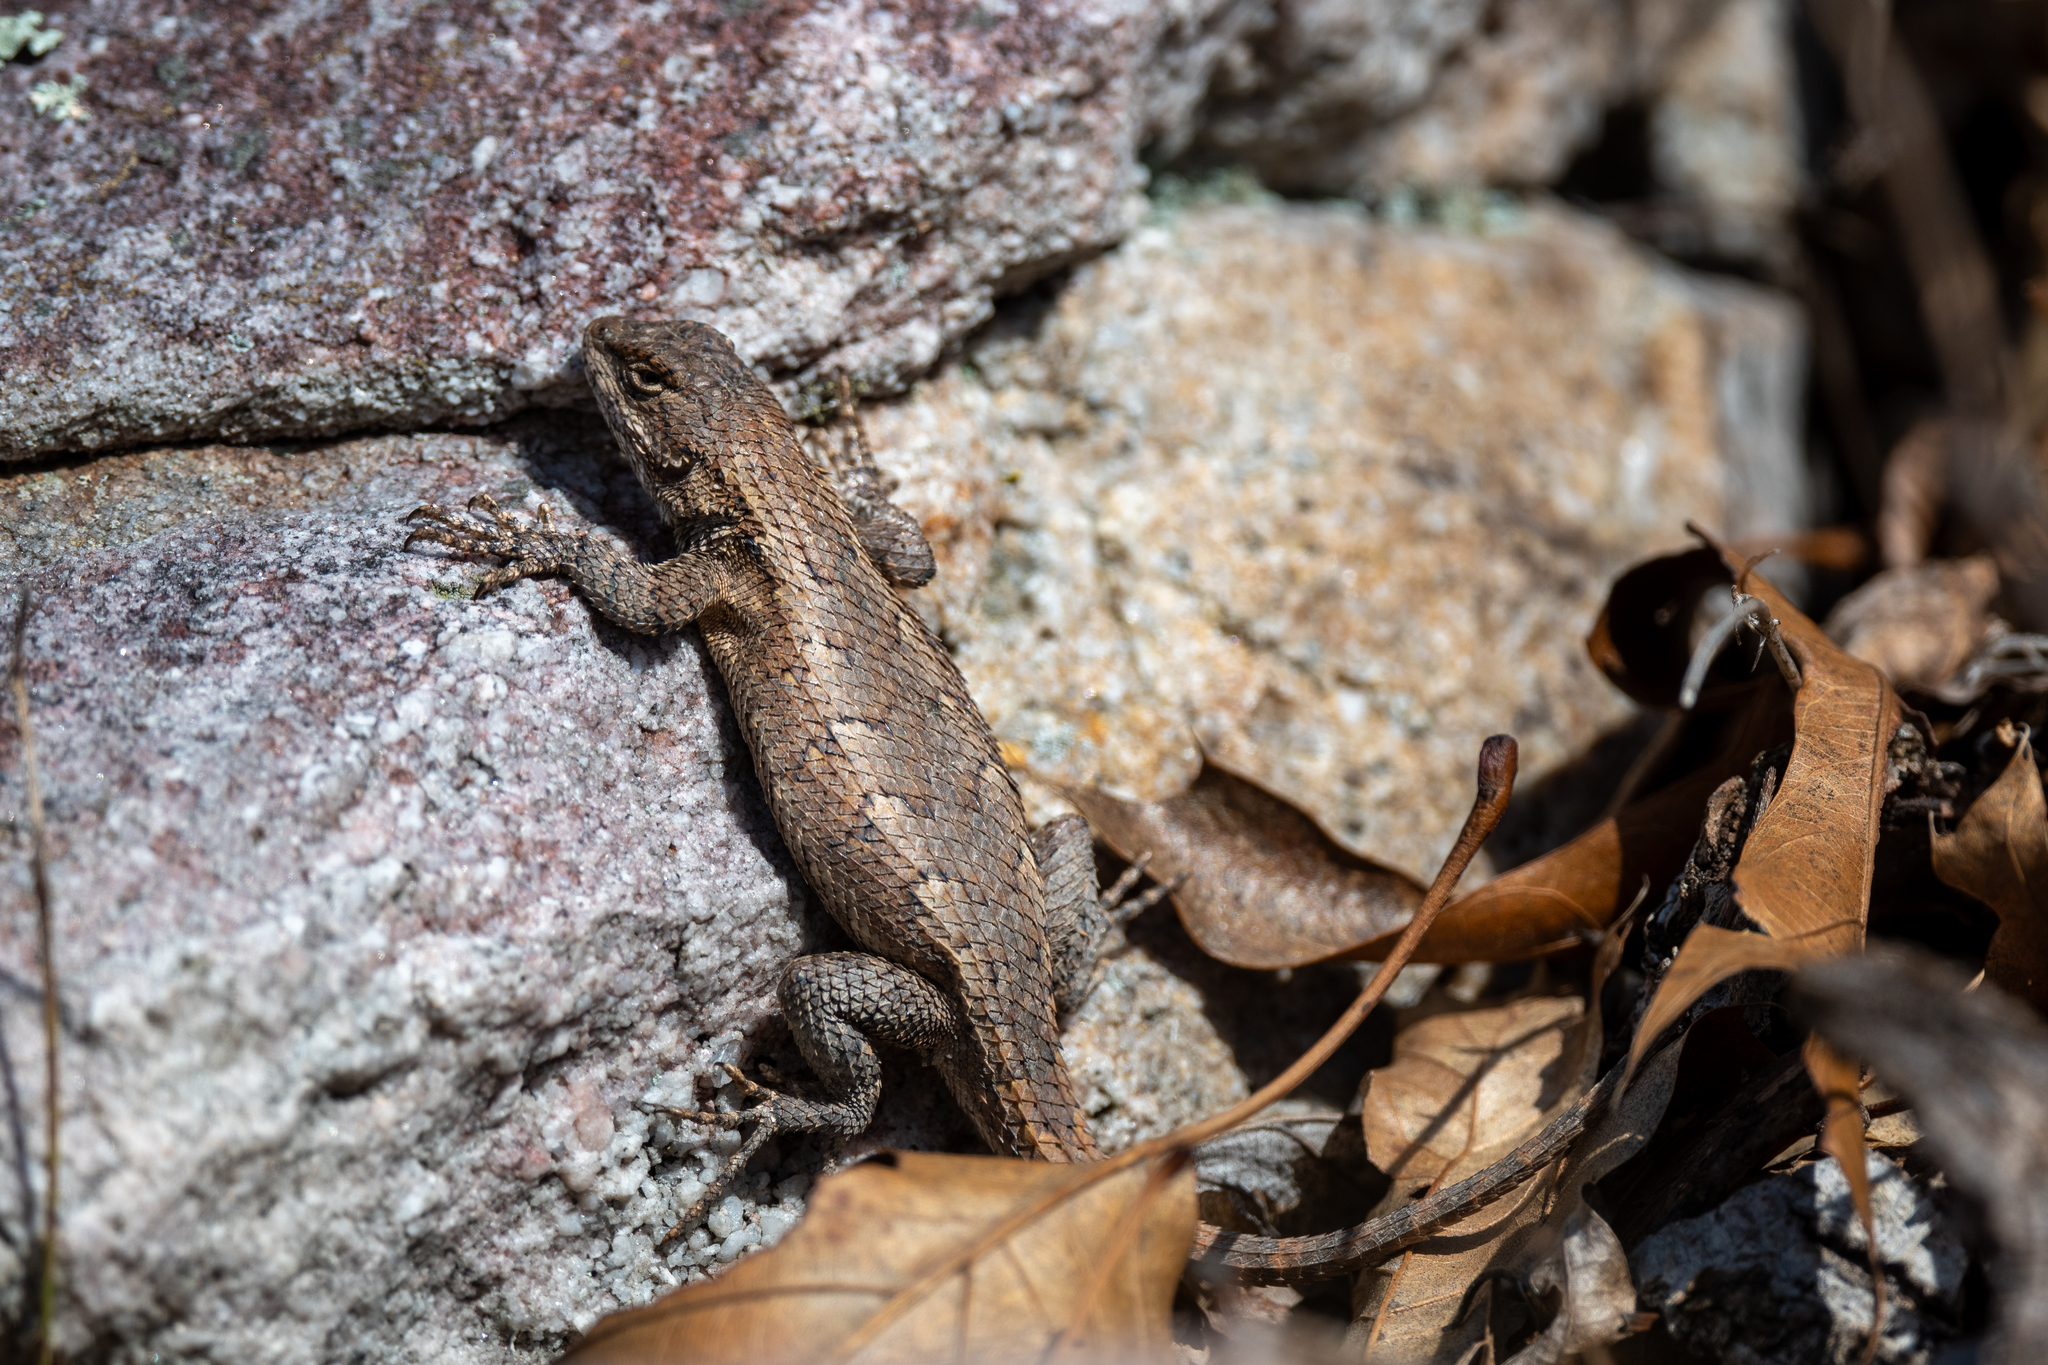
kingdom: Animalia
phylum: Chordata
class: Squamata
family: Phrynosomatidae
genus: Sceloporus
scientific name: Sceloporus undulatus
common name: Eastern fence lizard
